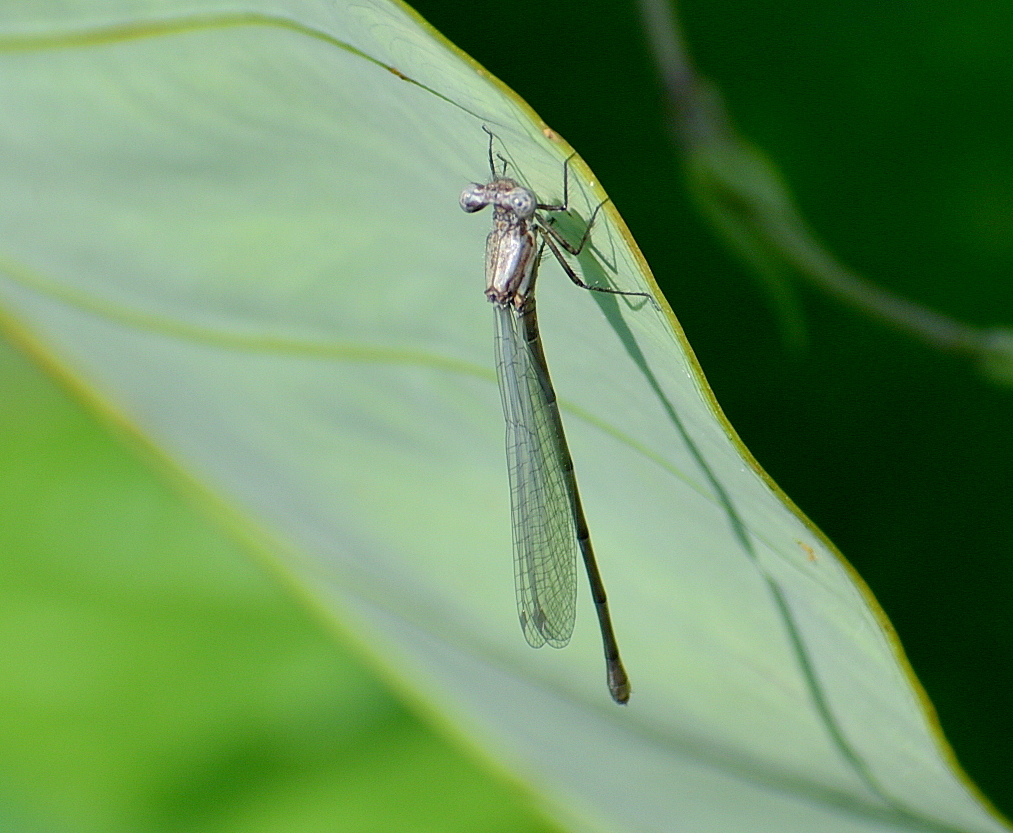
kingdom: Animalia
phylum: Arthropoda
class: Insecta
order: Odonata
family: Platycnemididae
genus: Onychargia
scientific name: Onychargia atrocyana
